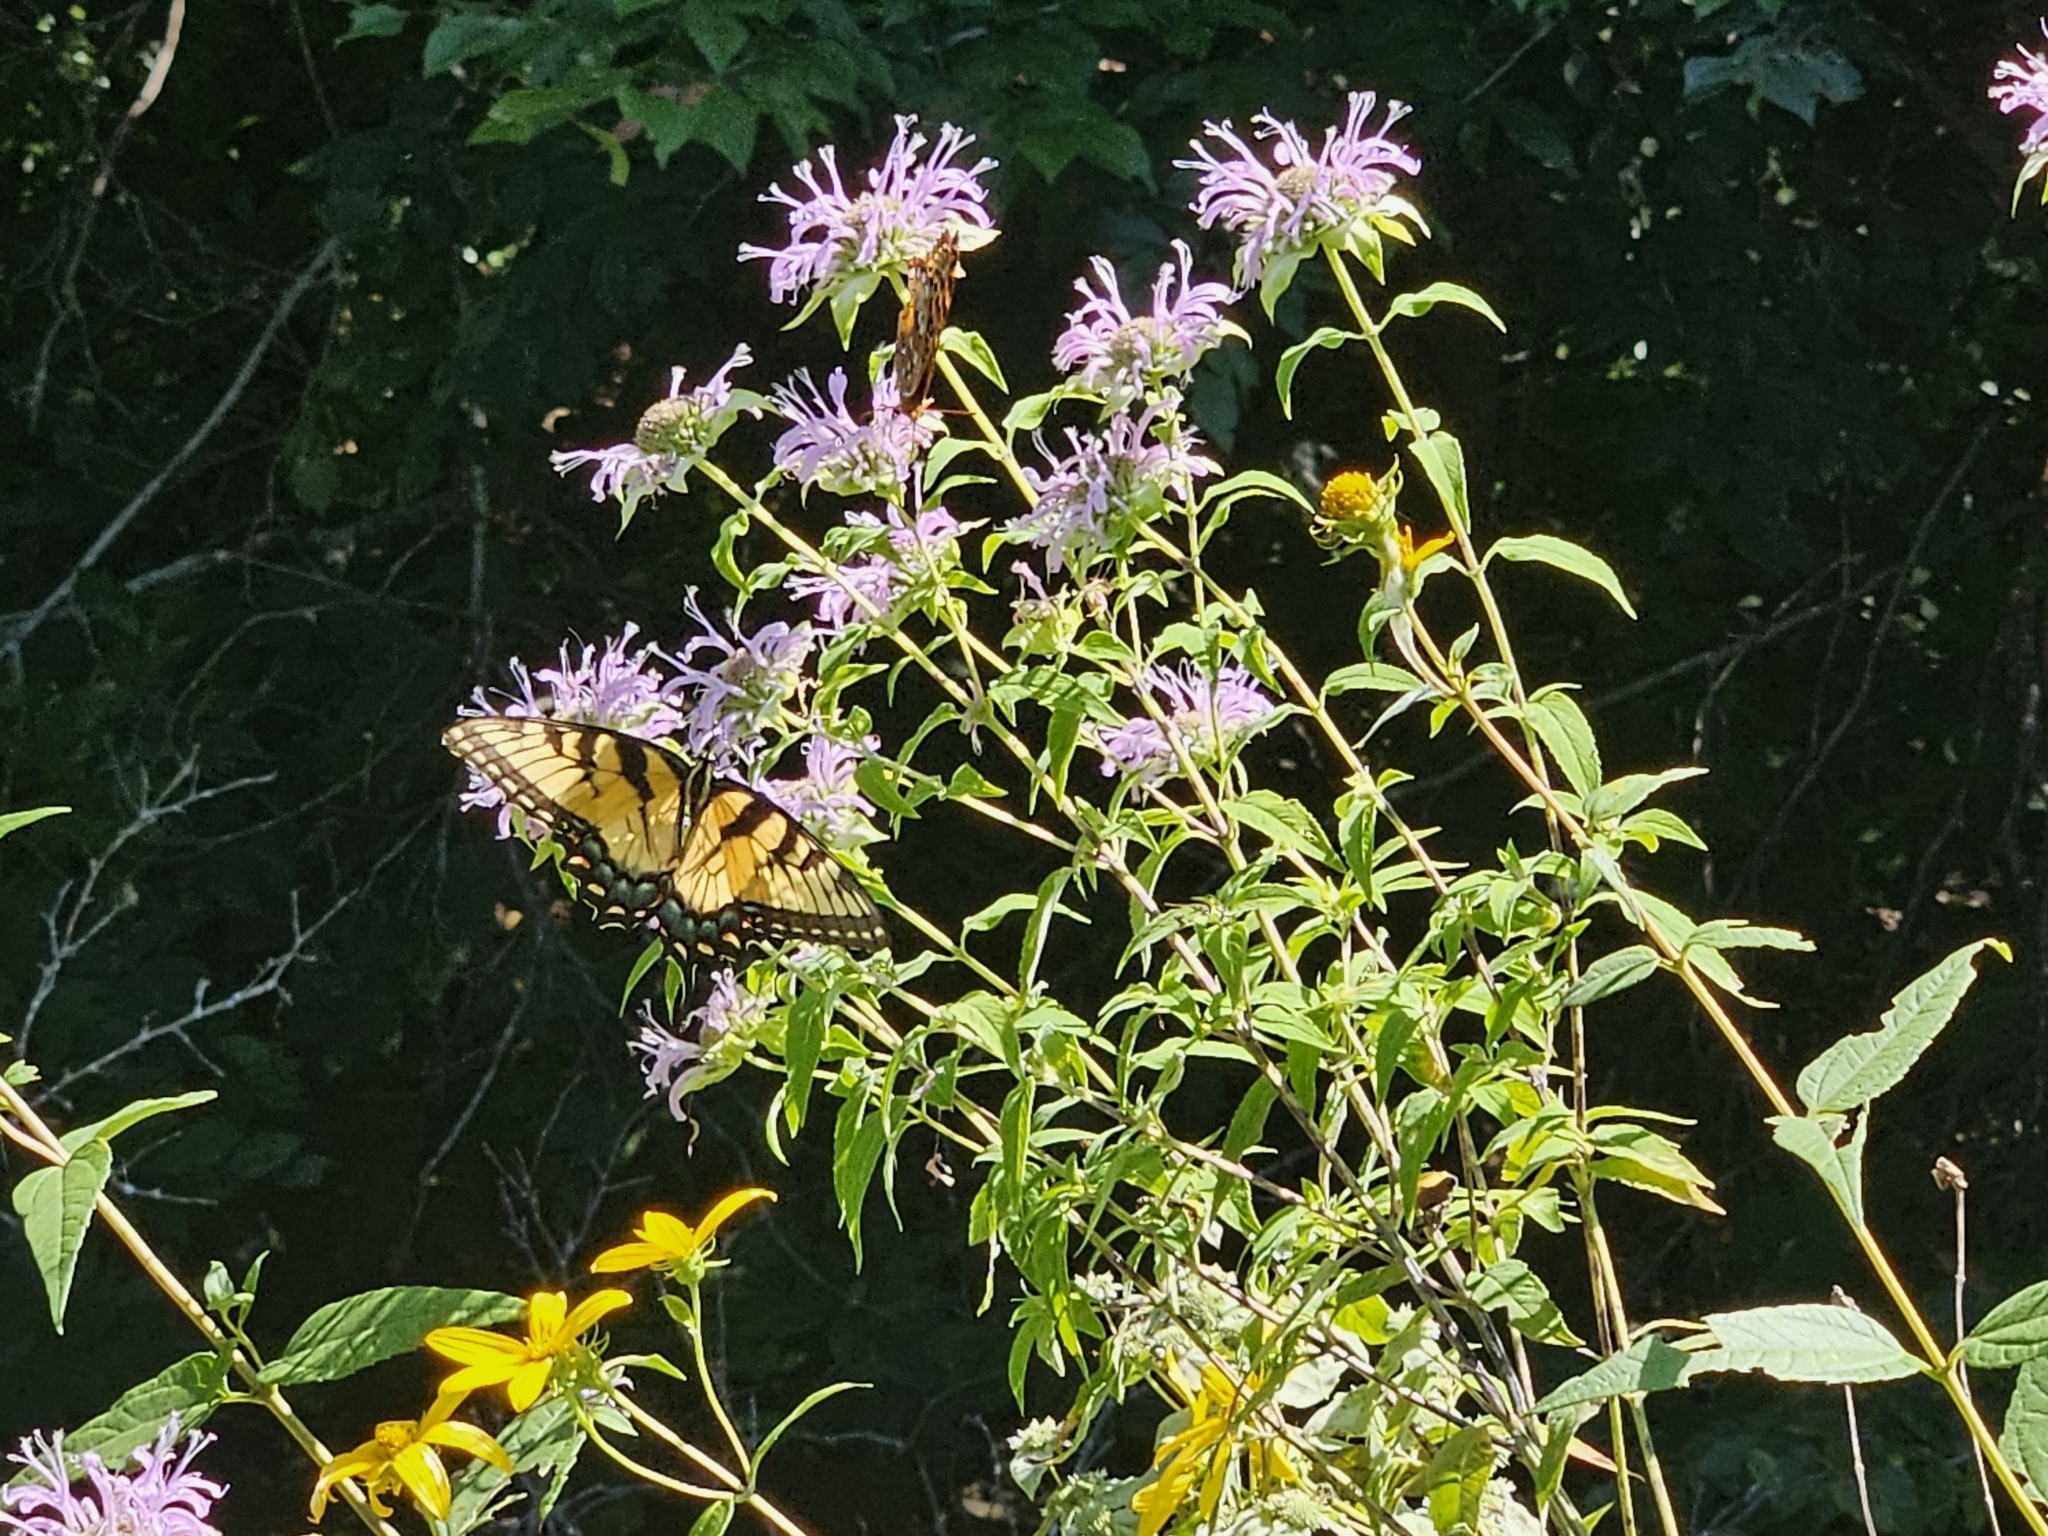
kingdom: Animalia
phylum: Arthropoda
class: Insecta
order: Lepidoptera
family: Papilionidae
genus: Papilio
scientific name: Papilio glaucus
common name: Tiger swallowtail
